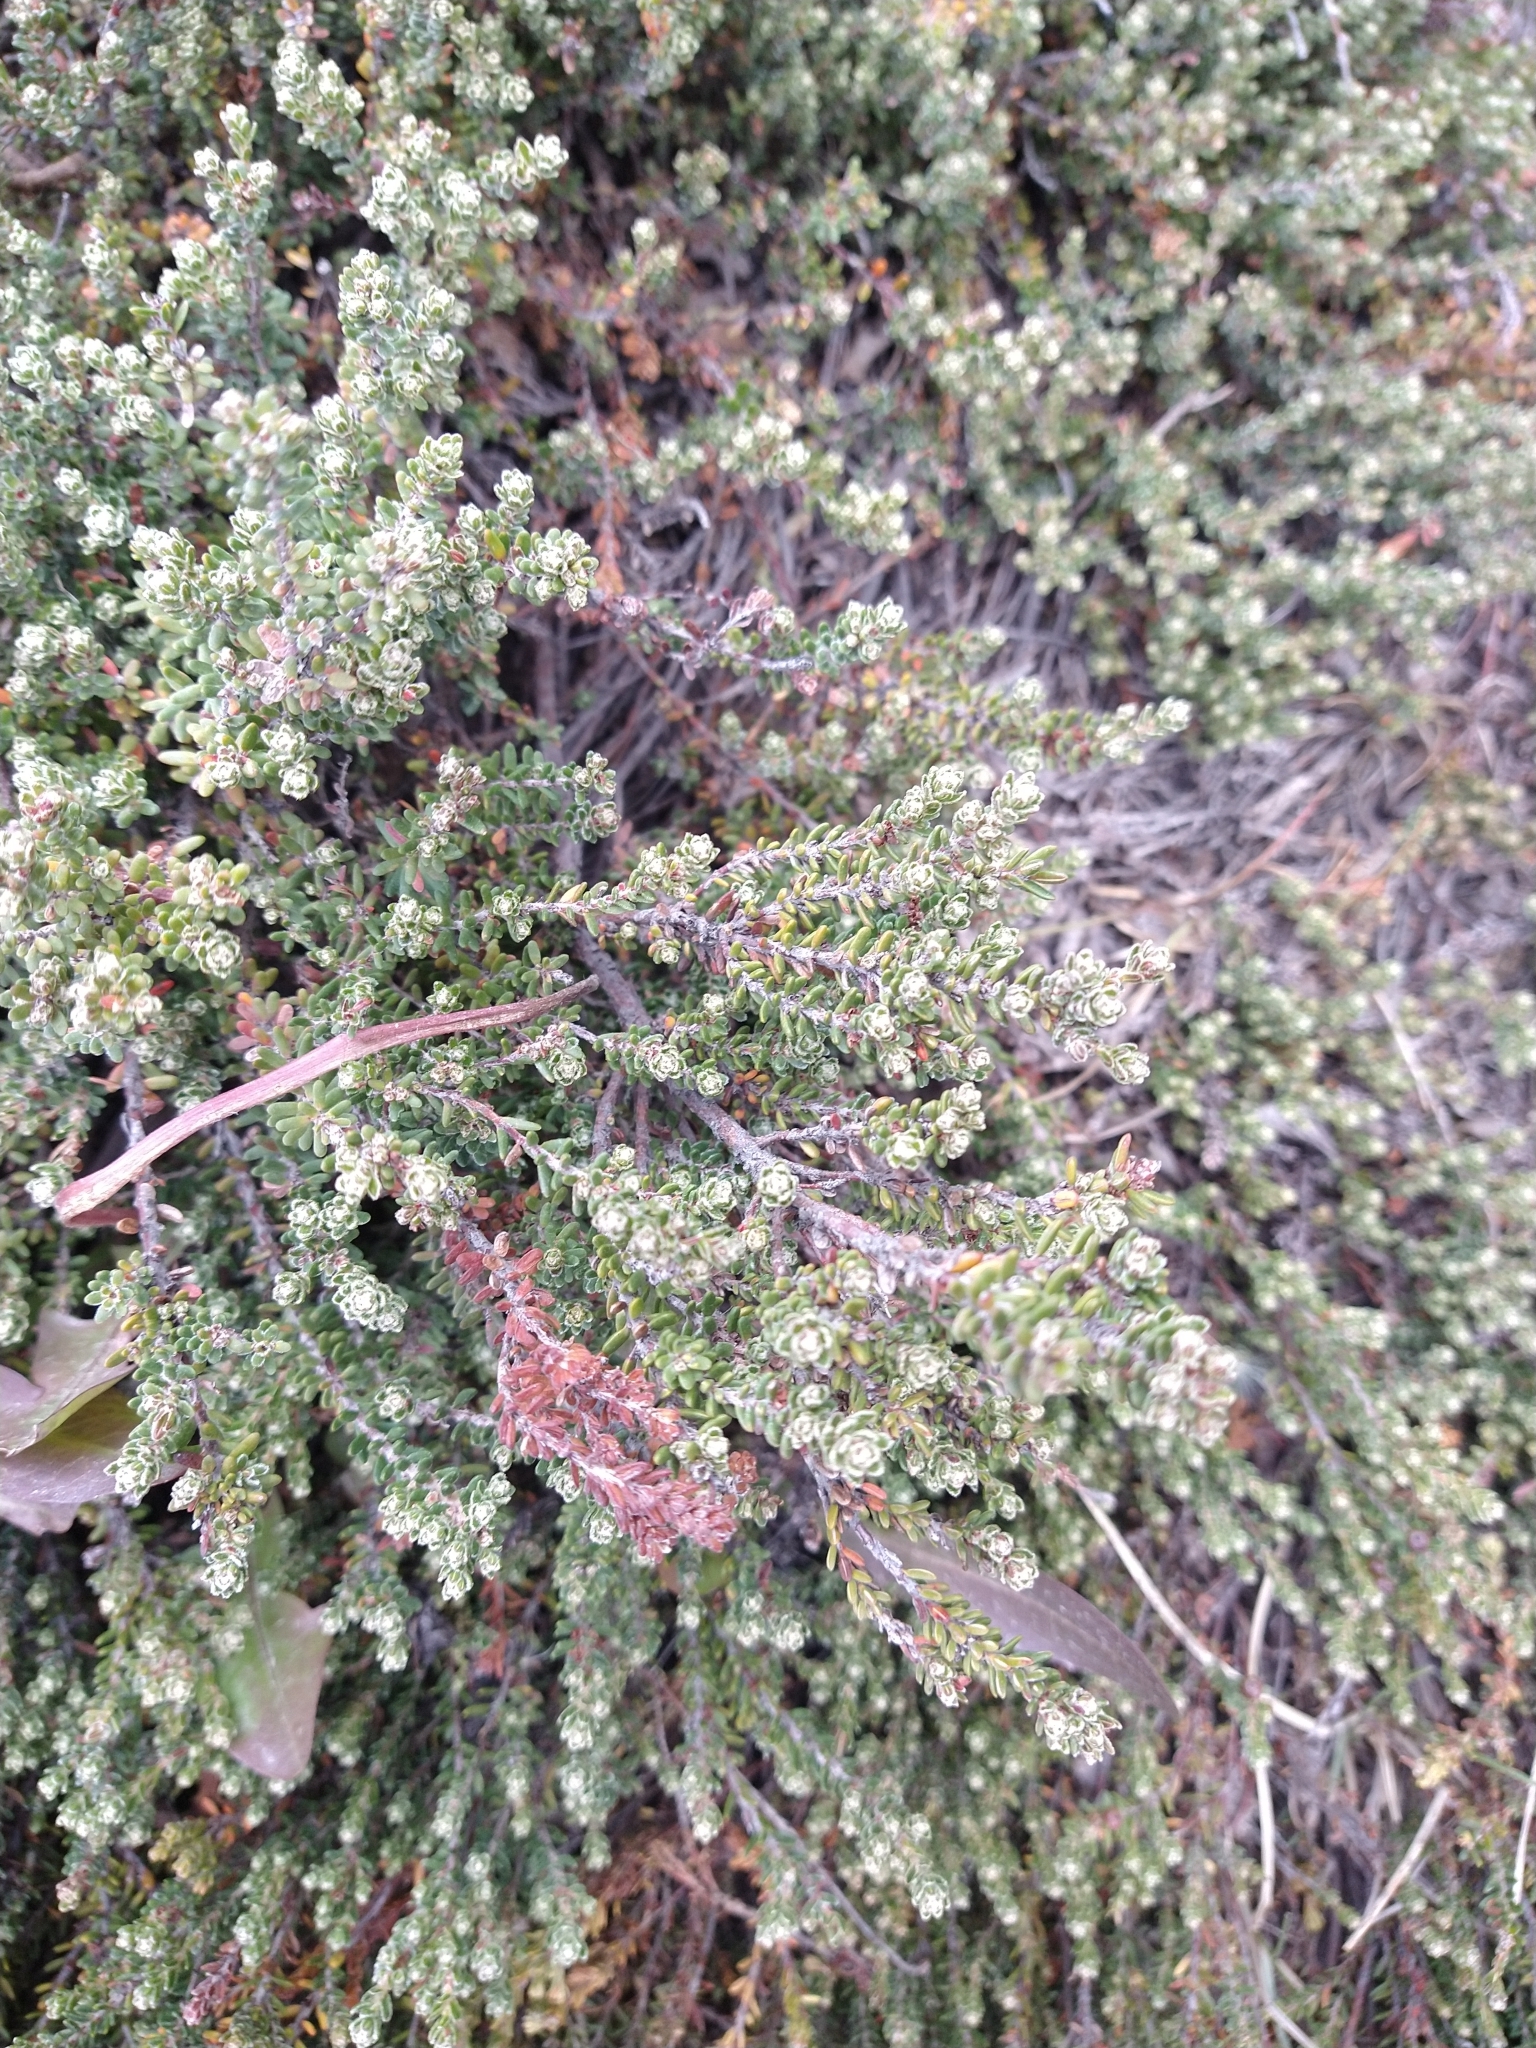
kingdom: Plantae
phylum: Tracheophyta
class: Magnoliopsida
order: Ericales
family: Ericaceae
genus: Empetrum
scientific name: Empetrum rubrum
